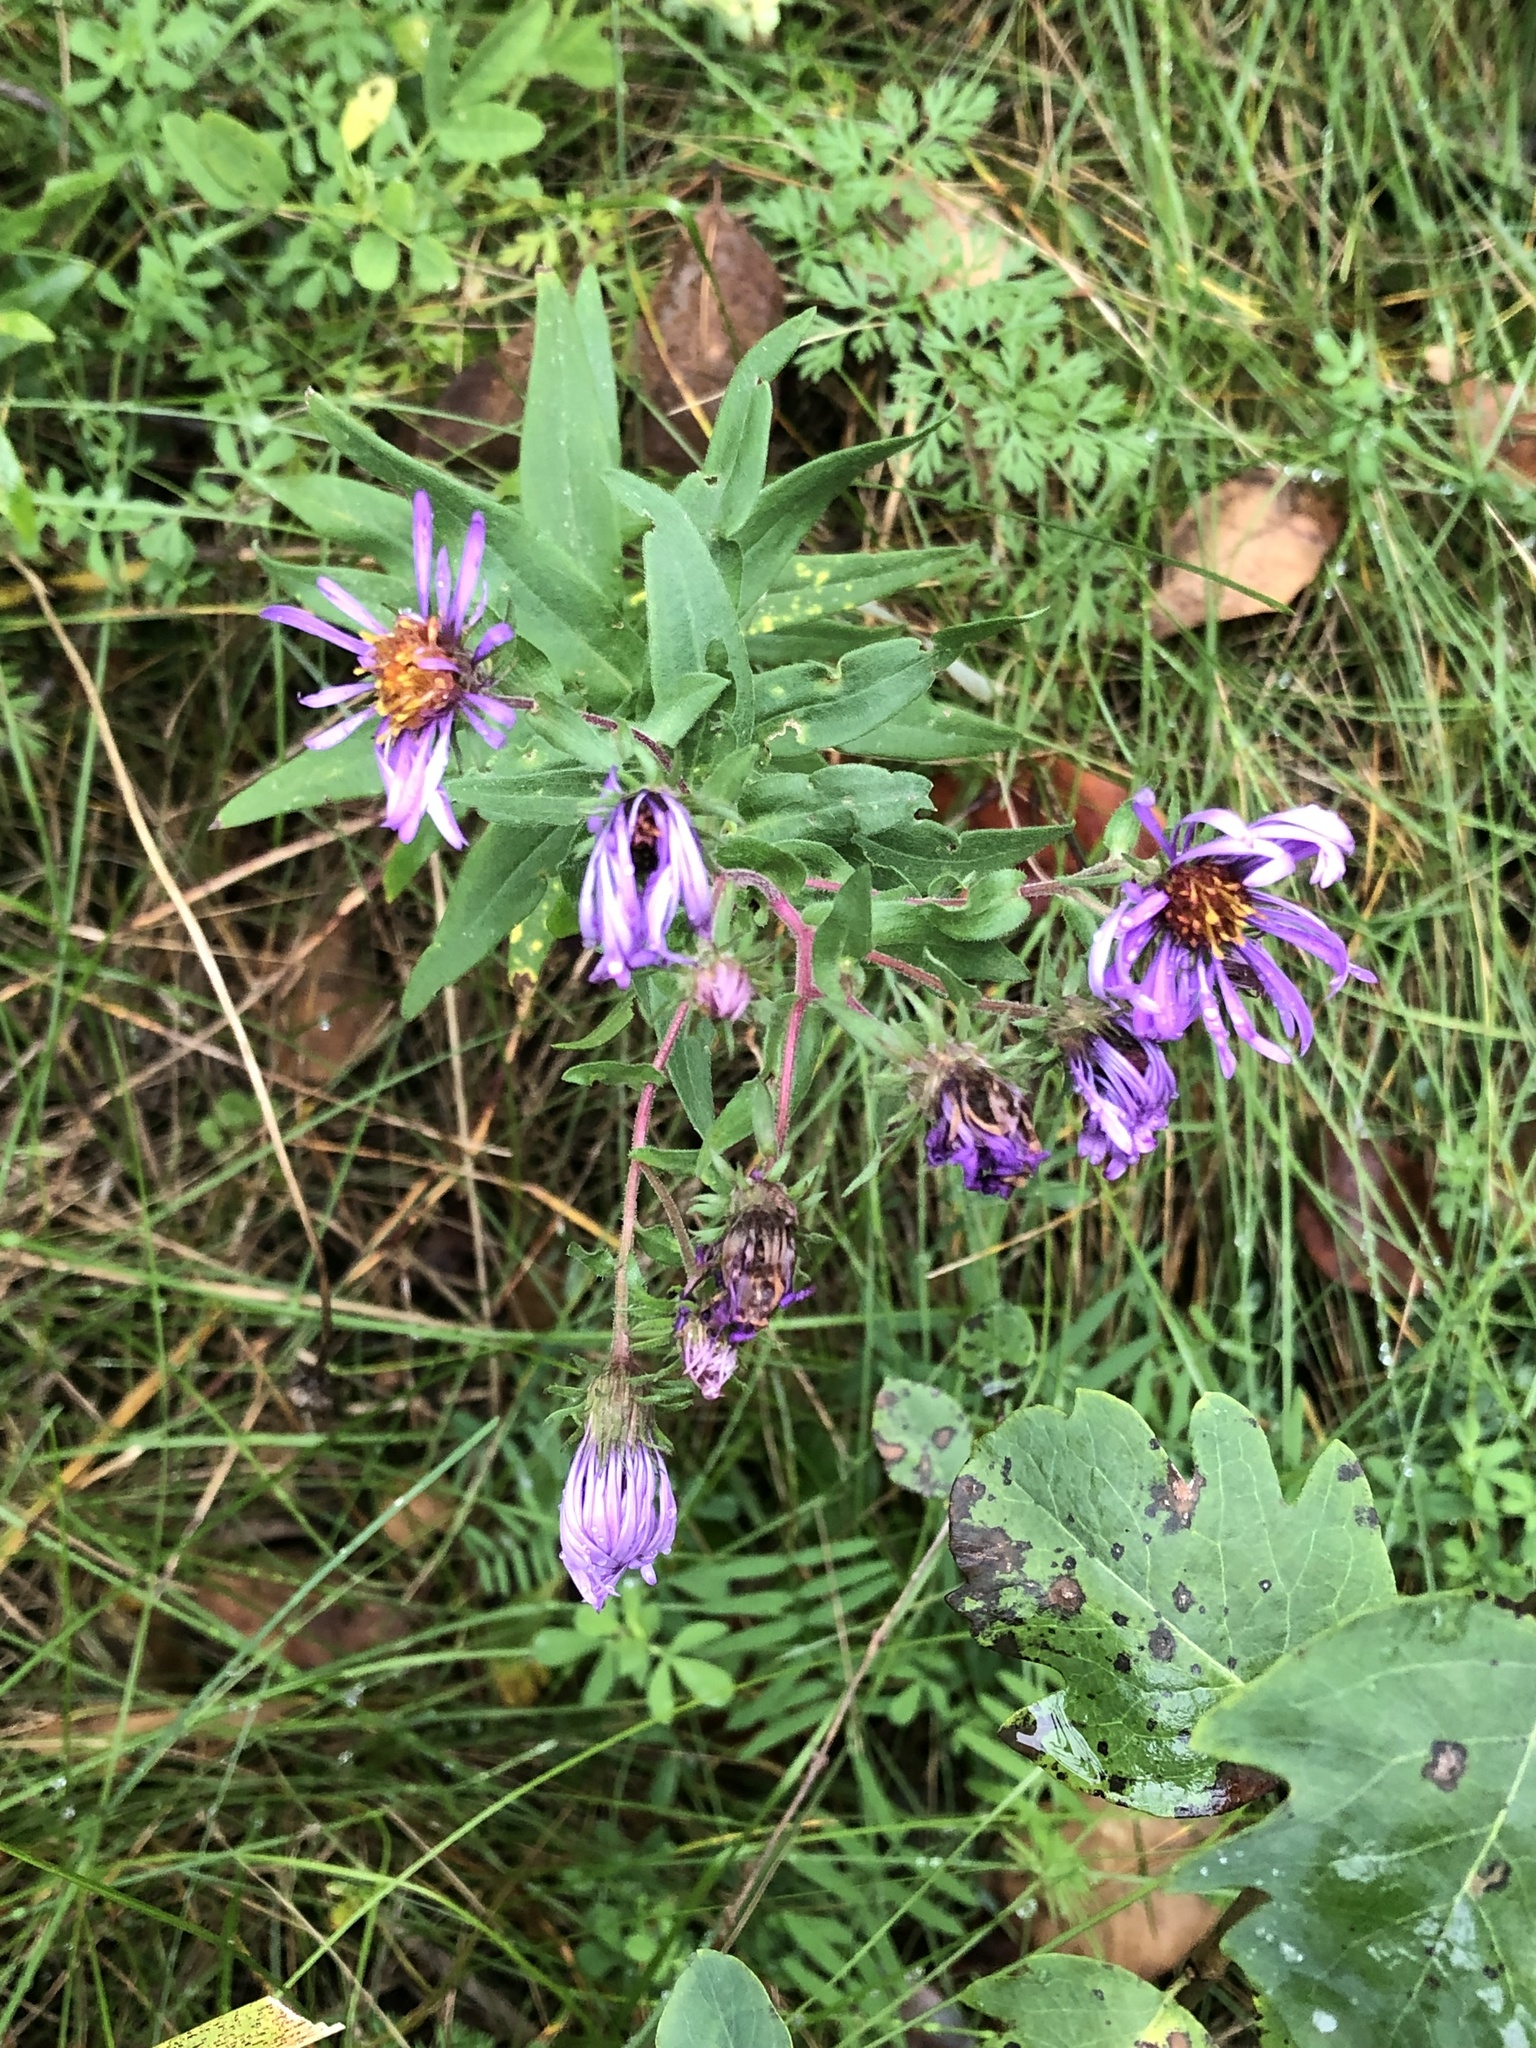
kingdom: Plantae
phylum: Tracheophyta
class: Magnoliopsida
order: Asterales
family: Asteraceae
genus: Symphyotrichum
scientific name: Symphyotrichum novae-angliae
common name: Michaelmas daisy
